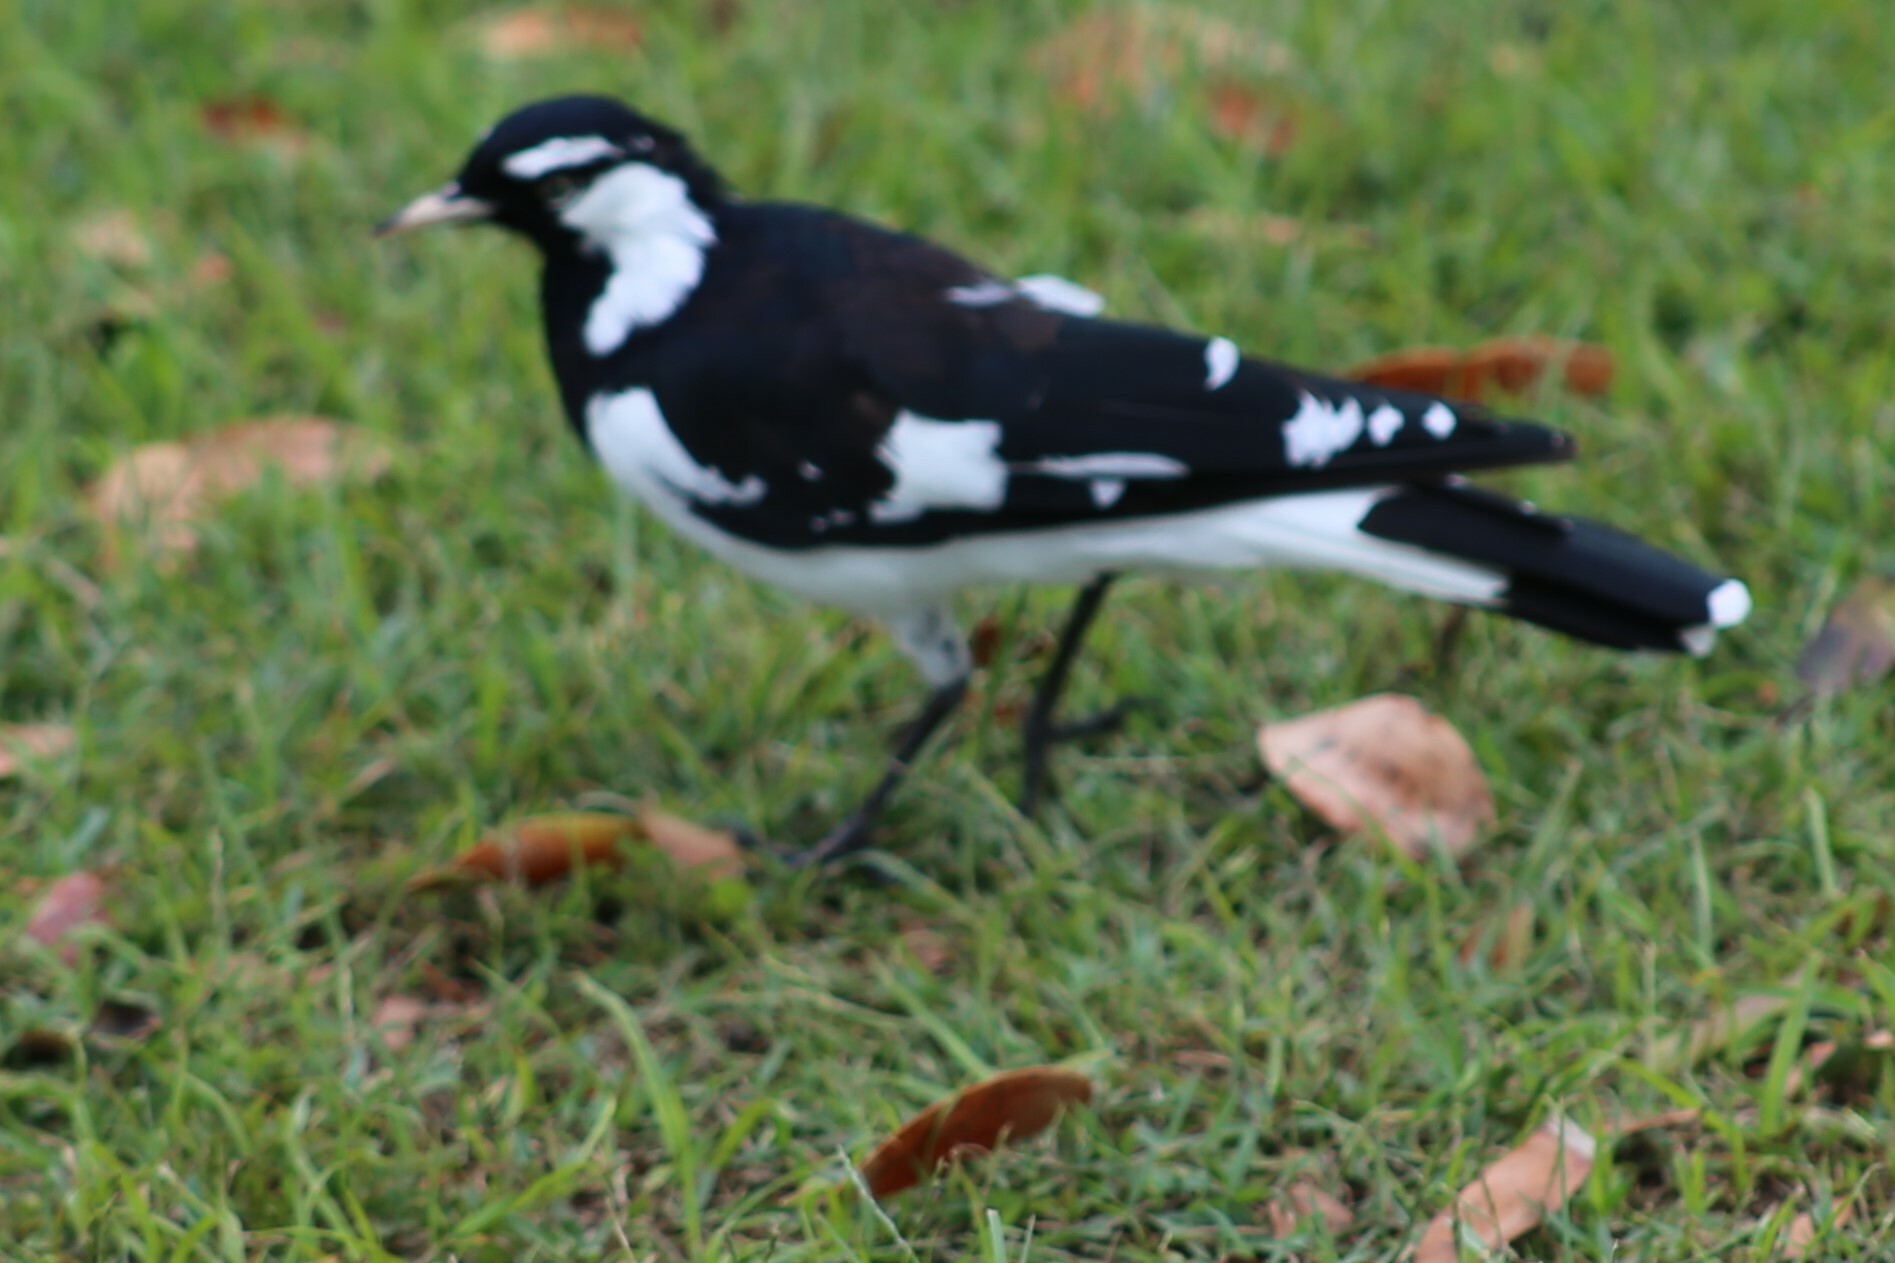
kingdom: Animalia
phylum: Chordata
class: Aves
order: Passeriformes
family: Monarchidae
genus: Grallina
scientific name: Grallina cyanoleuca
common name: Magpie-lark
